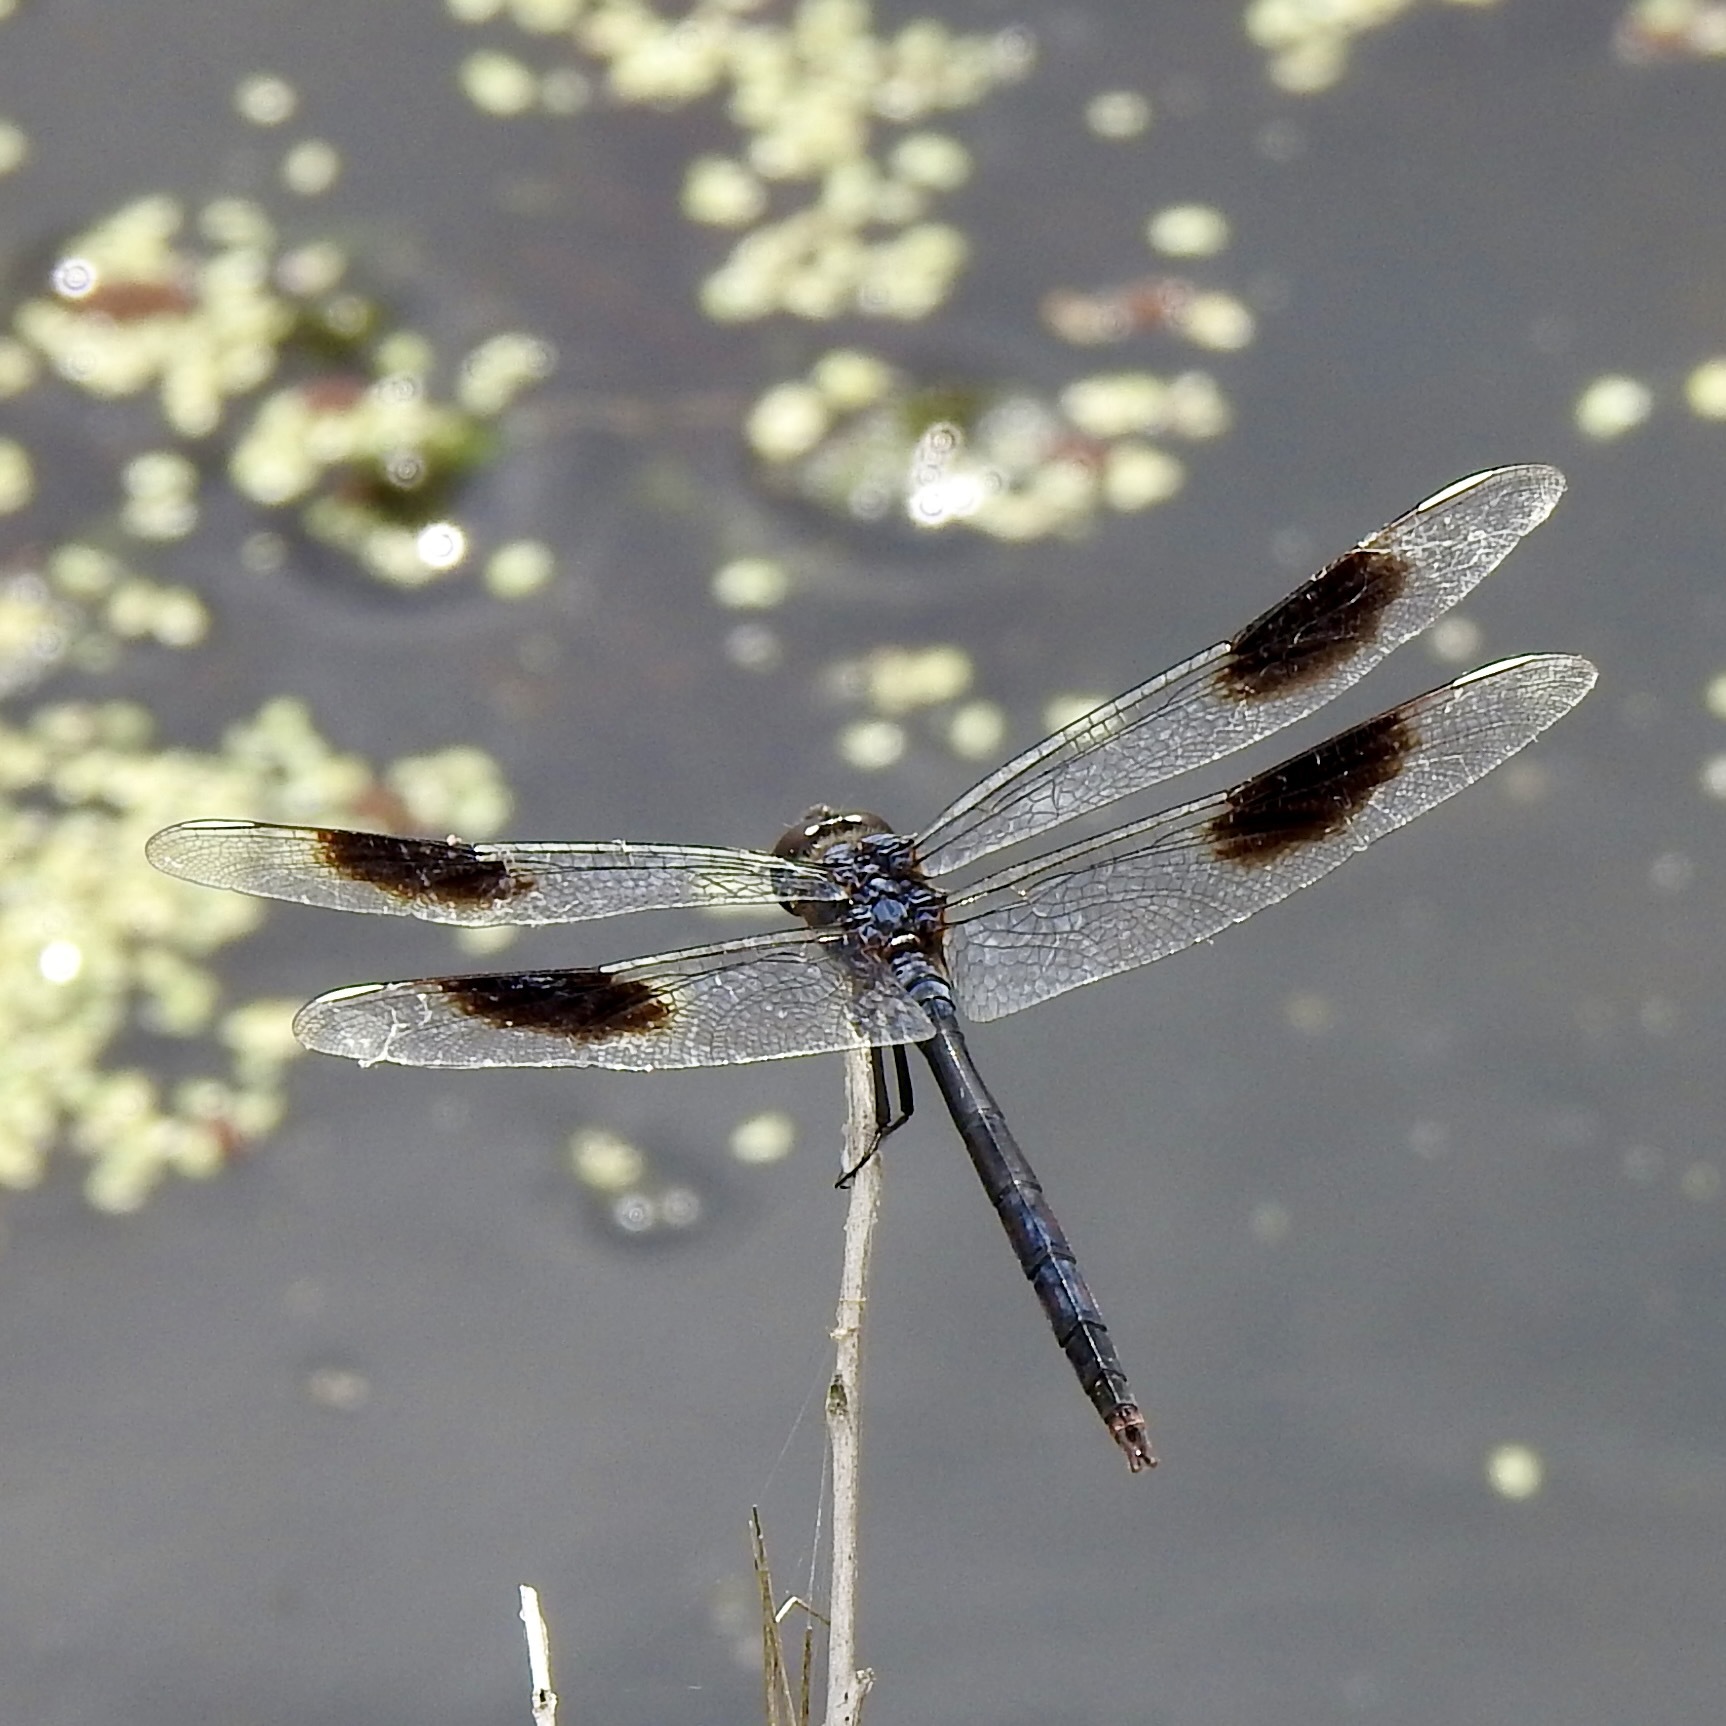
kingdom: Animalia
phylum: Arthropoda
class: Insecta
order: Odonata
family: Libellulidae
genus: Brachymesia
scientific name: Brachymesia gravida
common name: Four-spotted pennant
